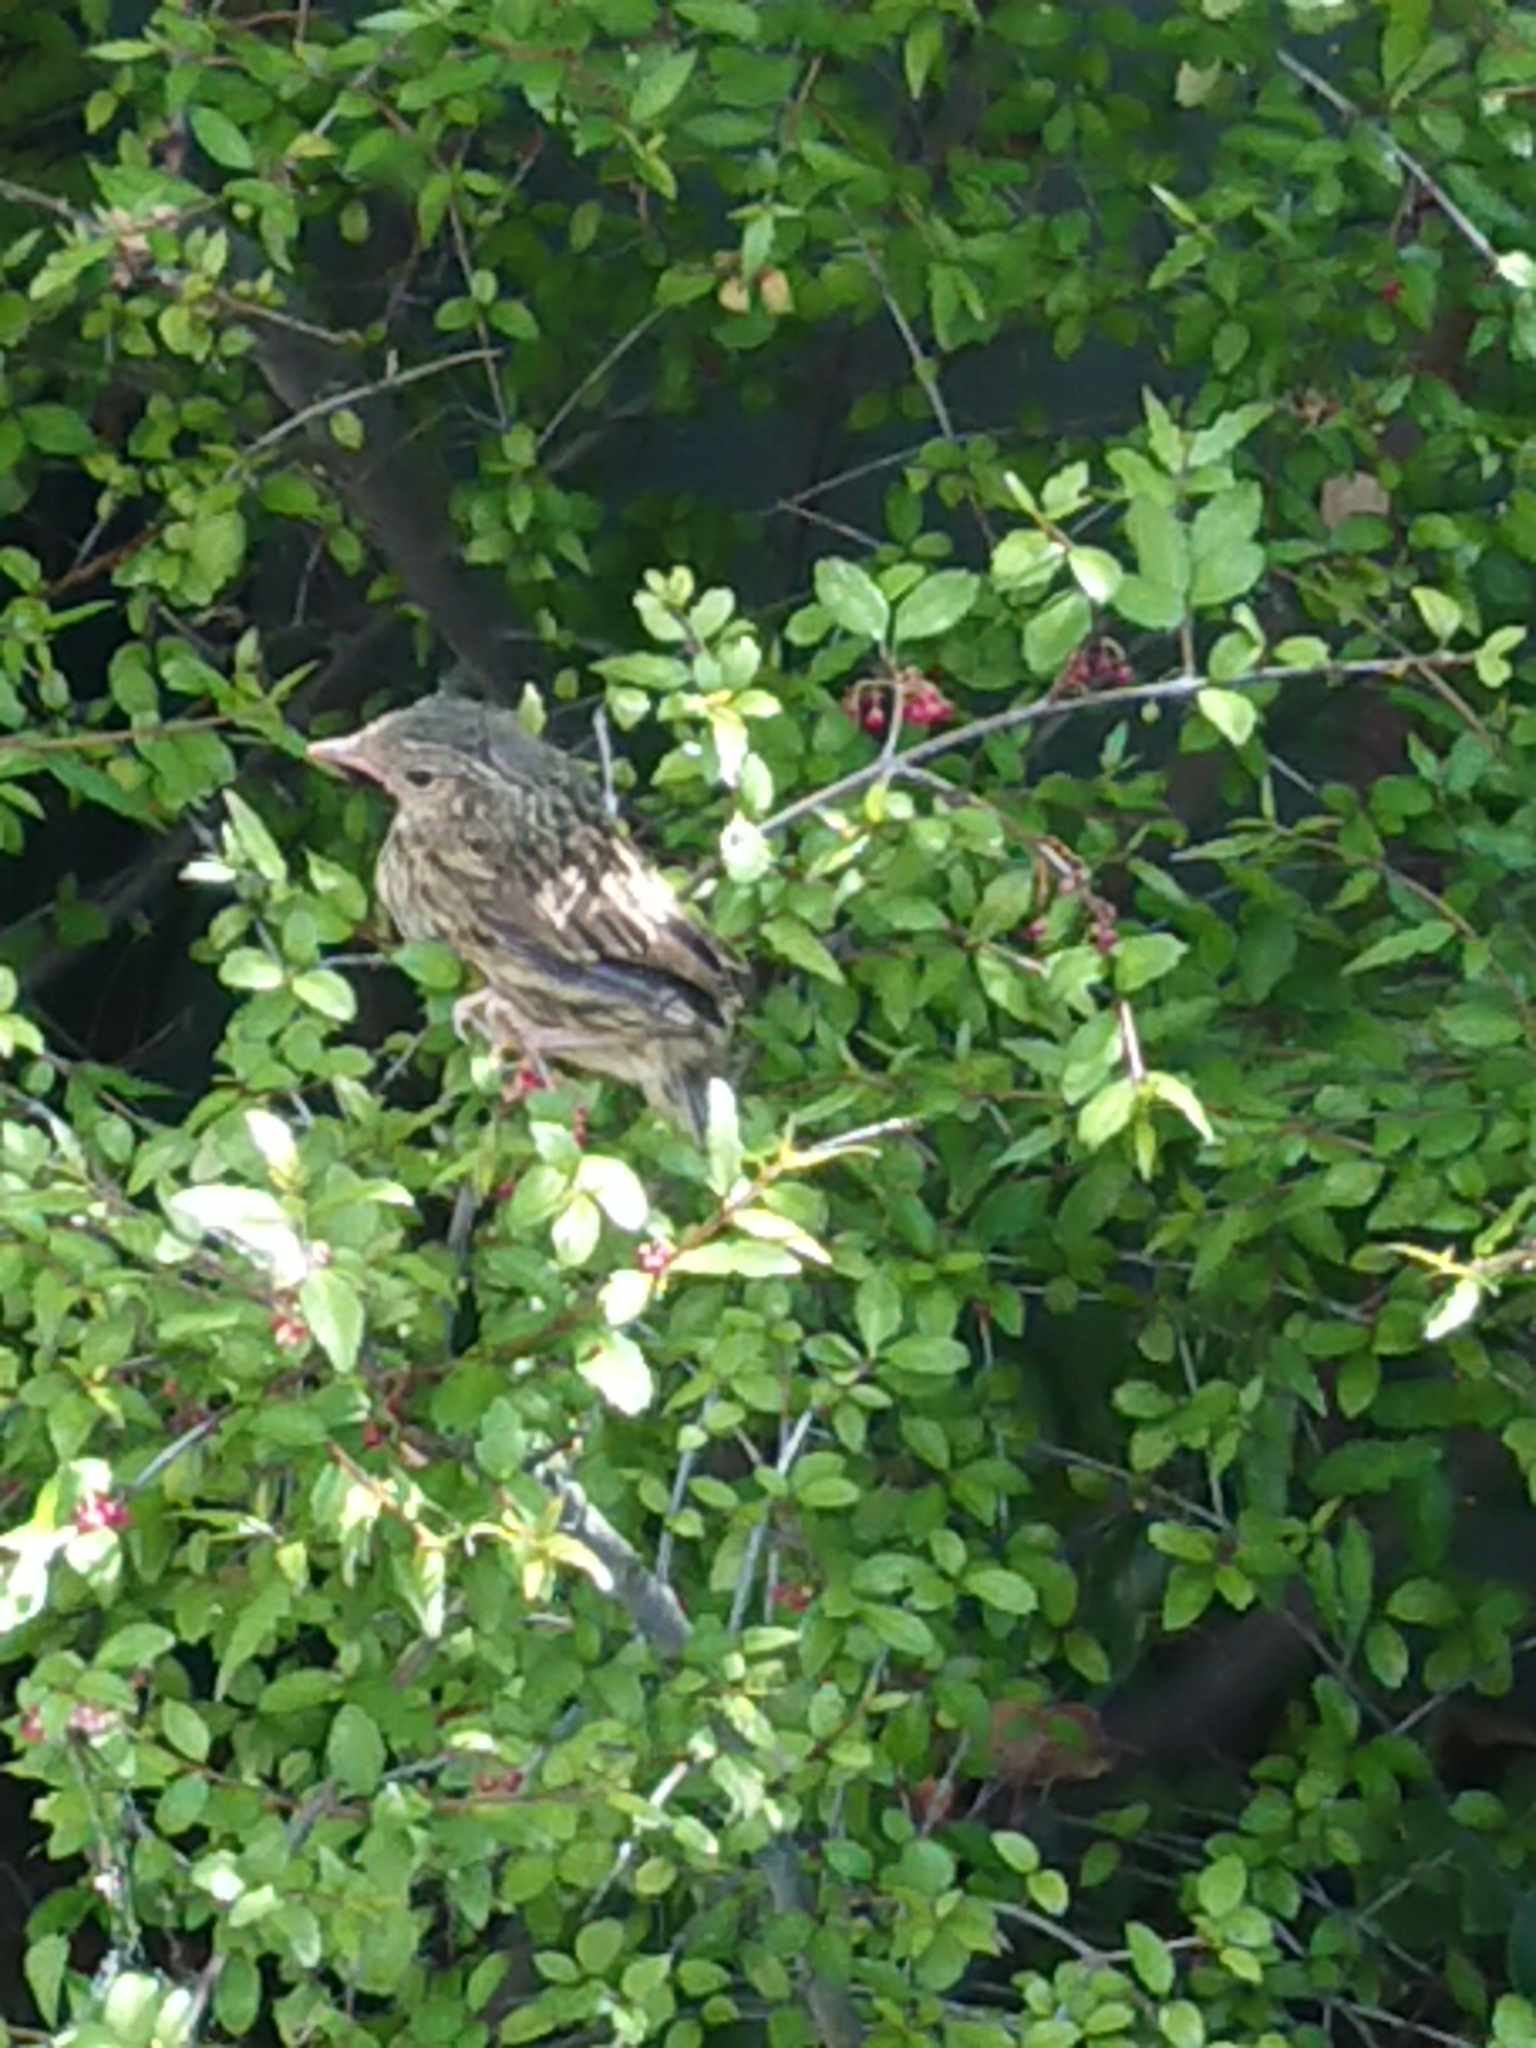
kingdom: Animalia
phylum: Chordata
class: Aves
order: Passeriformes
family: Prunellidae
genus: Prunella
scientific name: Prunella modularis
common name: Dunnock
